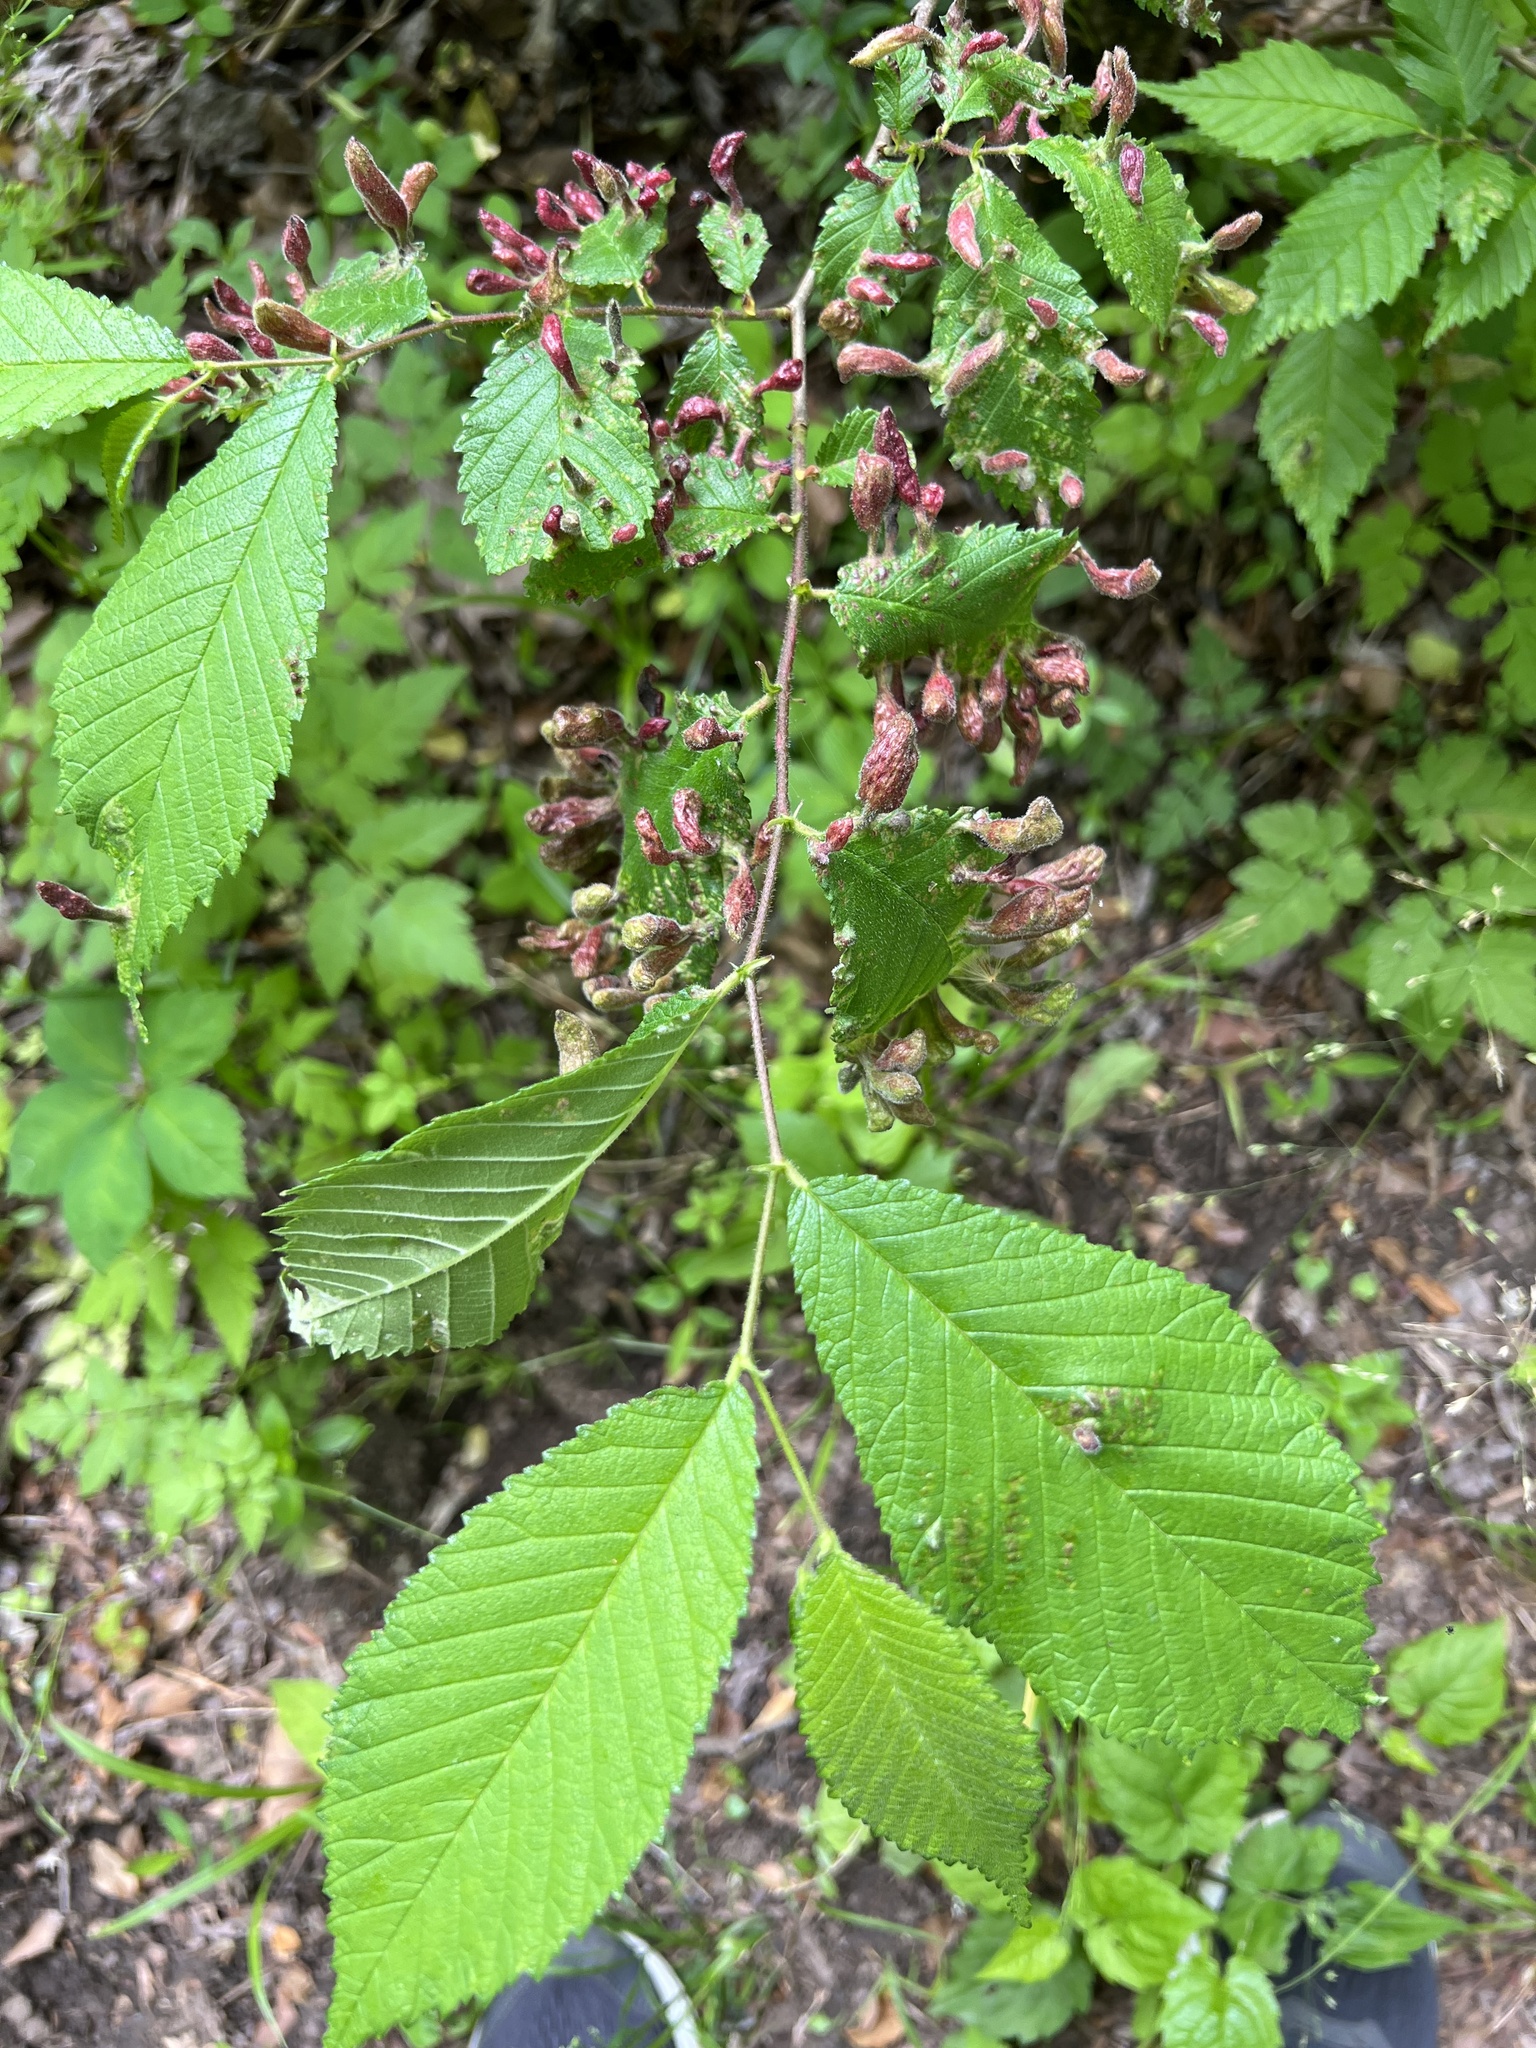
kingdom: Animalia
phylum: Arthropoda
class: Insecta
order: Hemiptera
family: Aphididae
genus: Tetraneura
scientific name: Tetraneura nigriabdominalis
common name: Aphid
